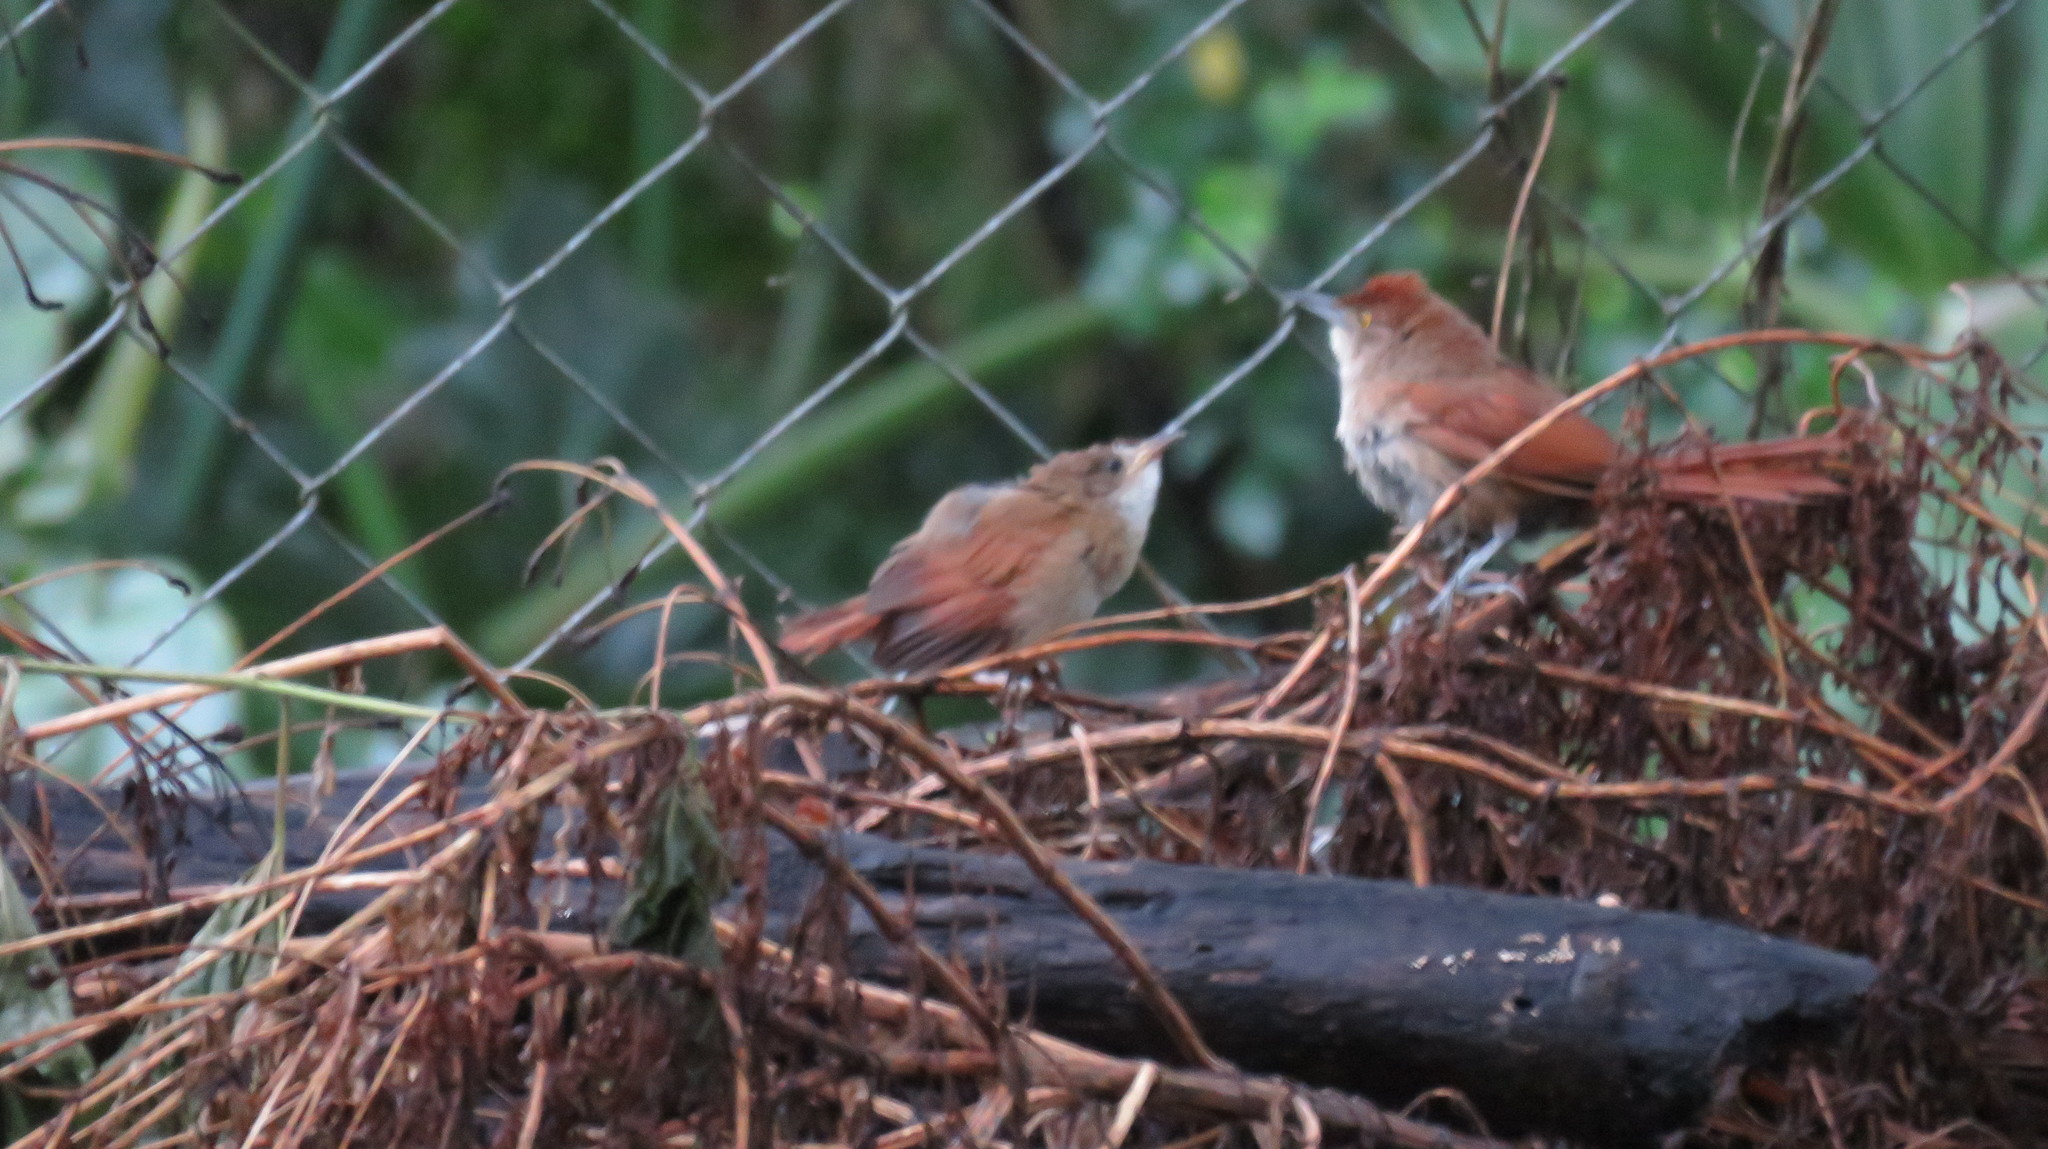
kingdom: Animalia
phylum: Chordata
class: Aves
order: Passeriformes
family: Furnariidae
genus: Phacellodomus
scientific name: Phacellodomus ruber
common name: Greater thornbird
